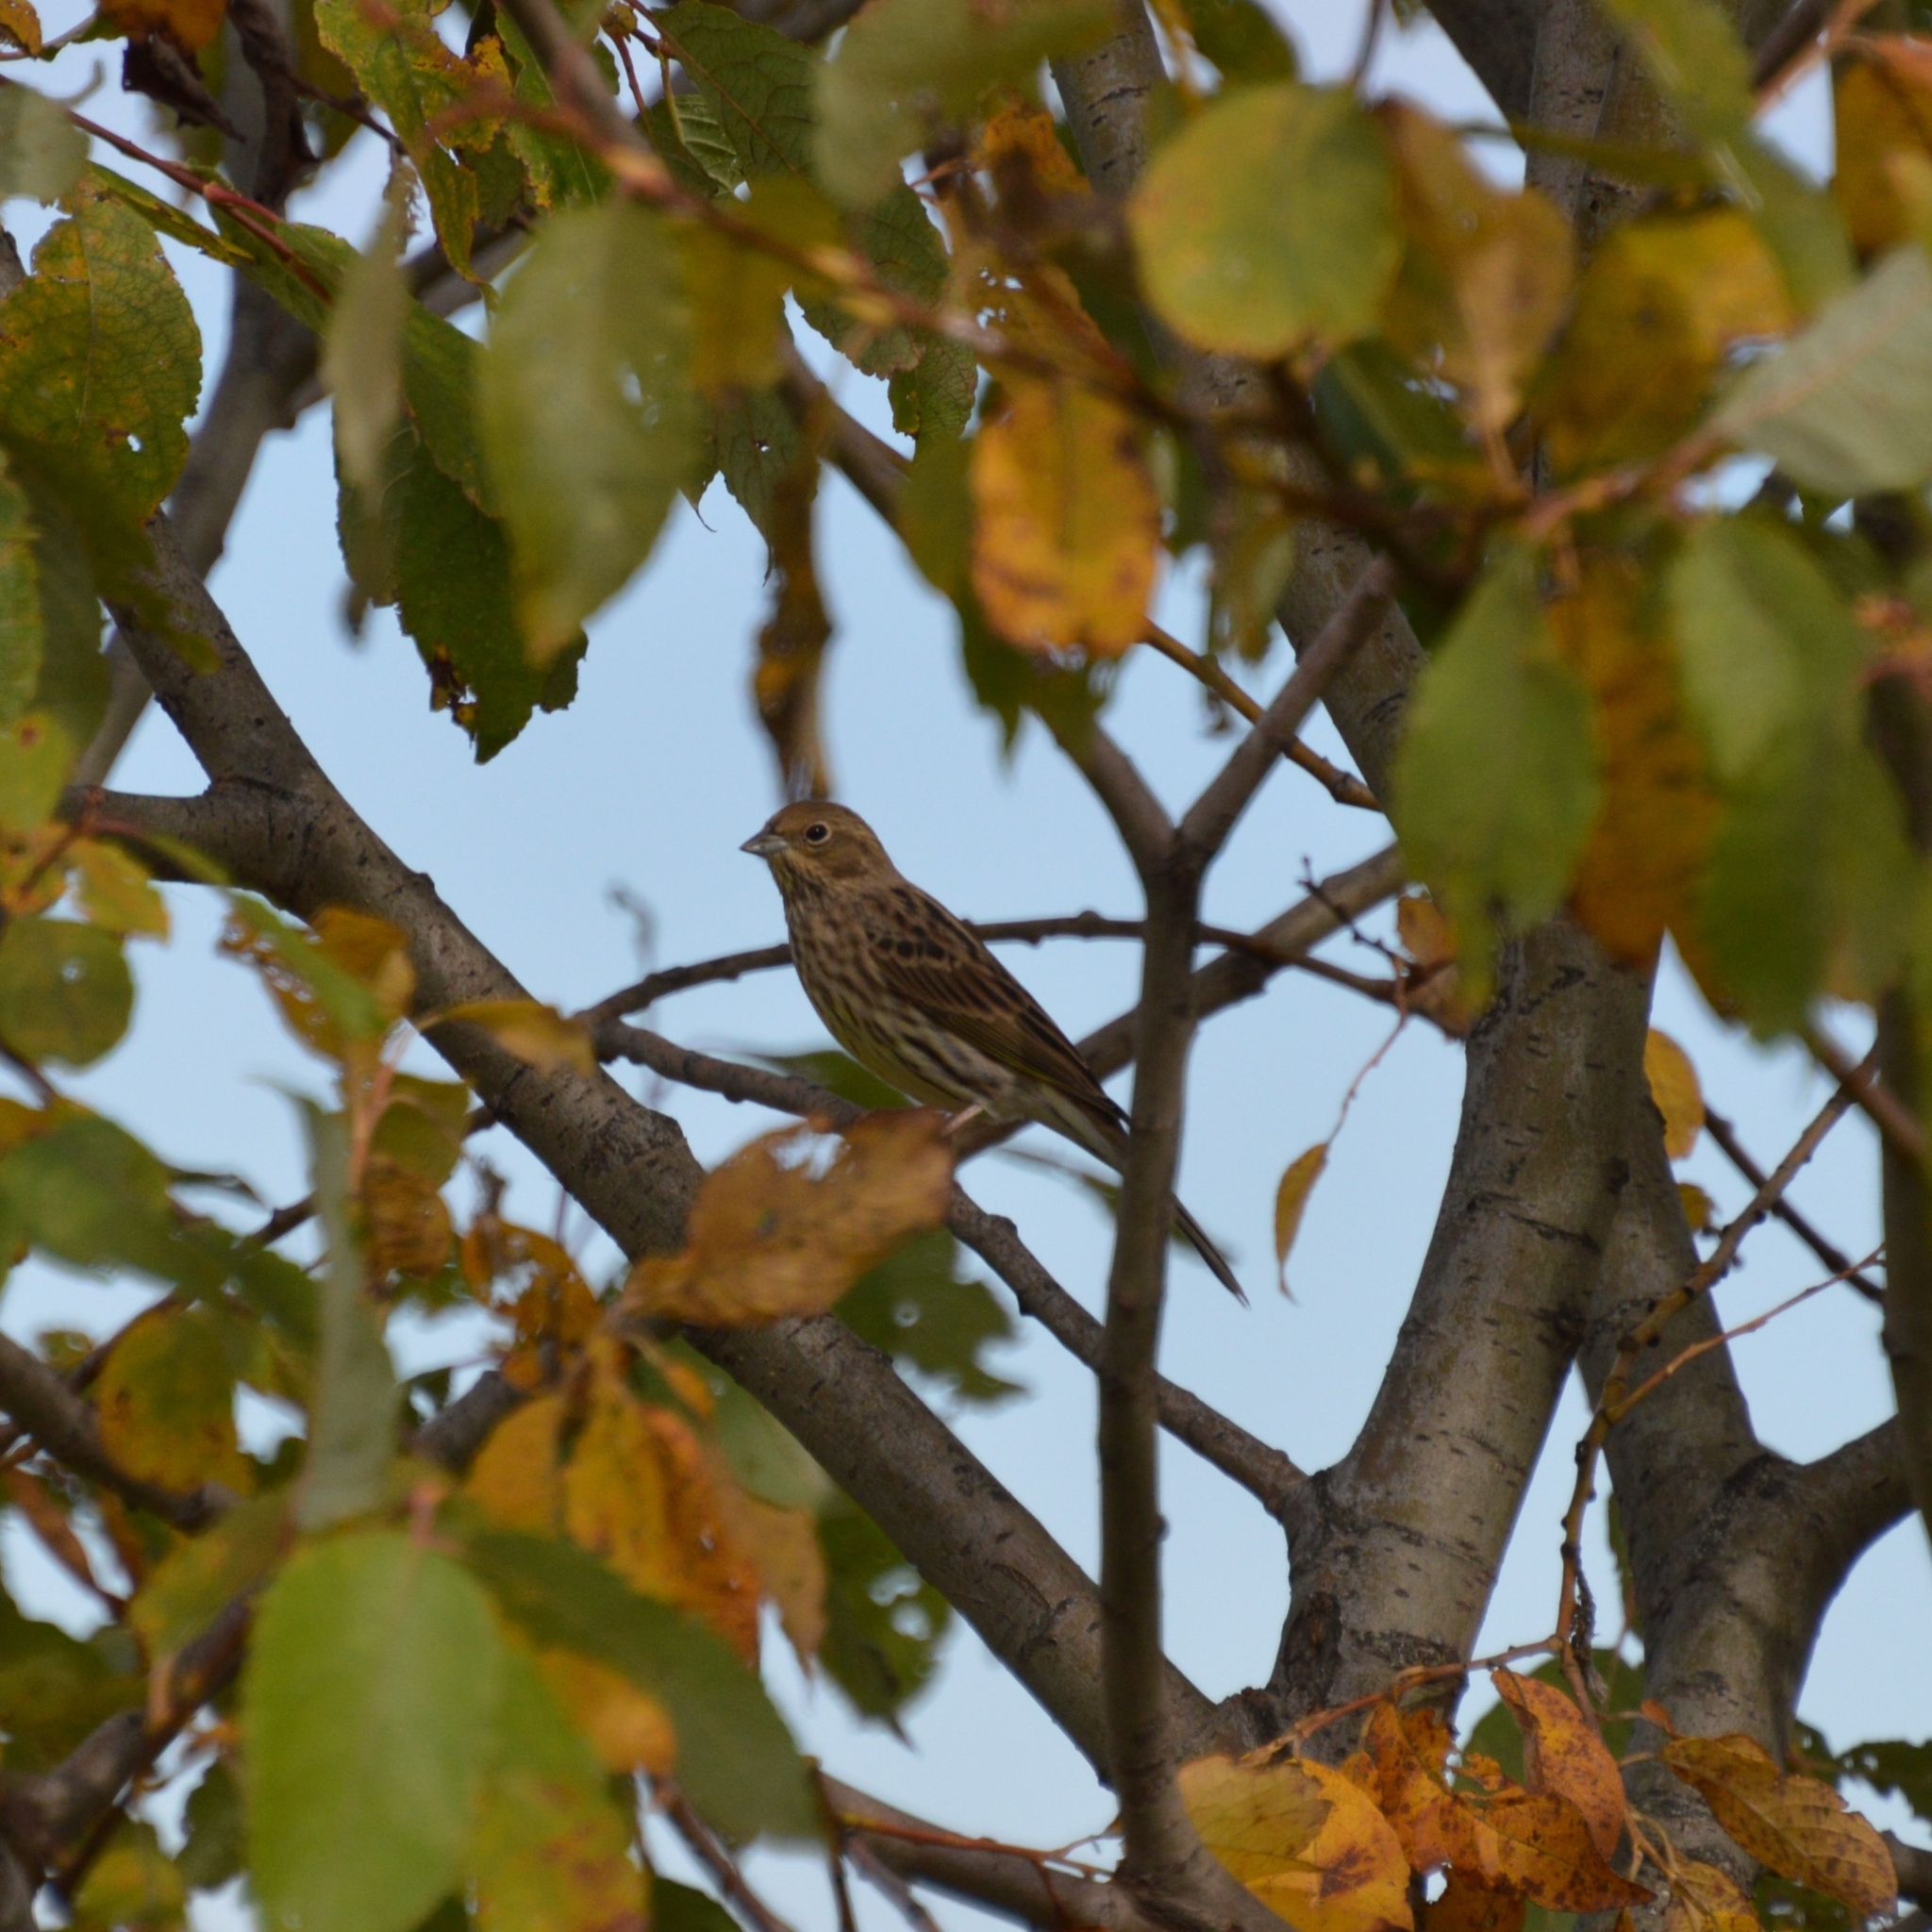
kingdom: Animalia
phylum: Chordata
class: Aves
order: Passeriformes
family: Emberizidae
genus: Emberiza
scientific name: Emberiza citrinella
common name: Yellowhammer
